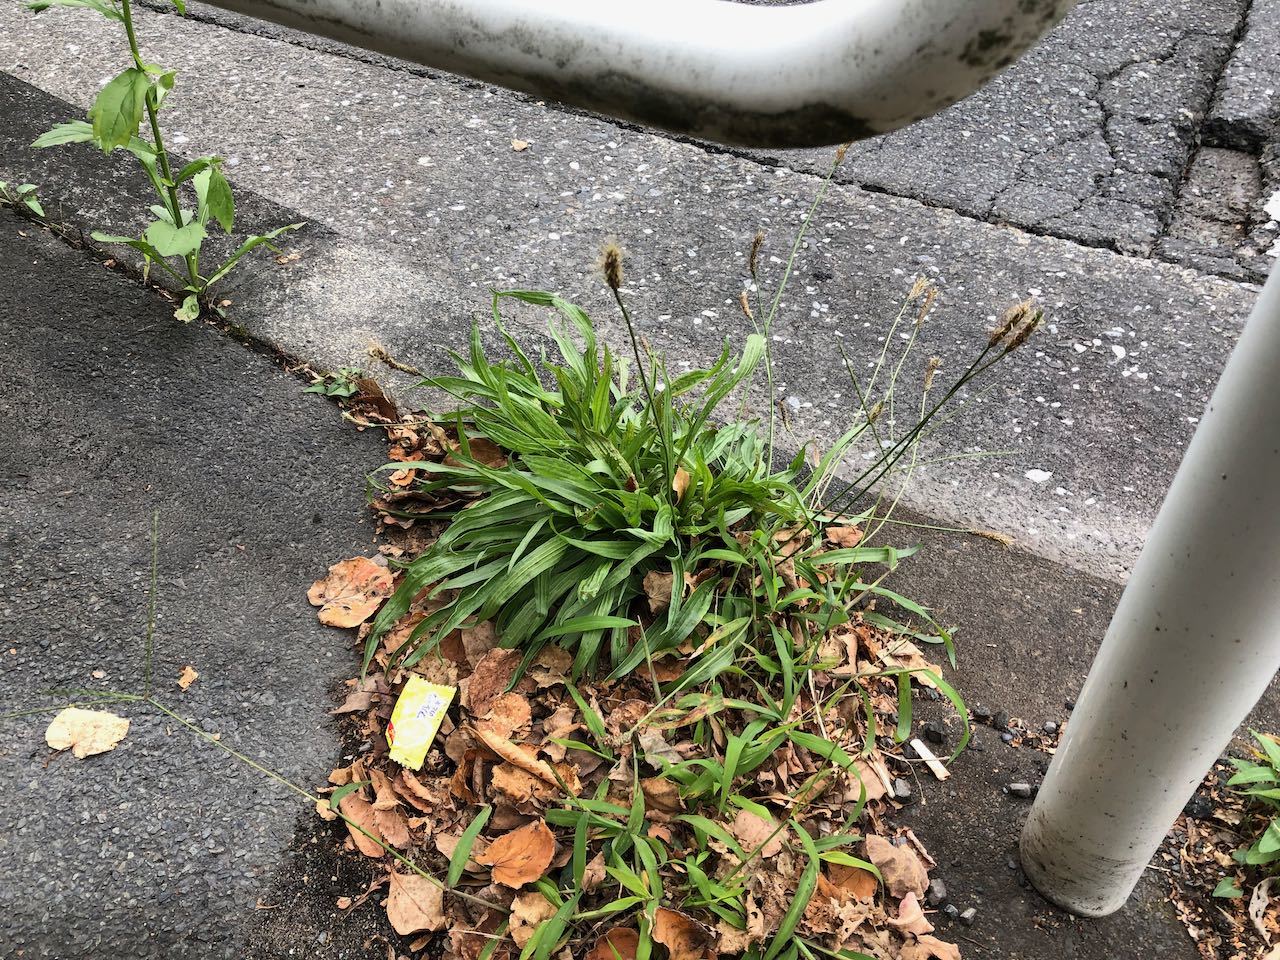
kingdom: Plantae
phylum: Tracheophyta
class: Magnoliopsida
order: Lamiales
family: Plantaginaceae
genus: Plantago
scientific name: Plantago lanceolata
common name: Ribwort plantain
